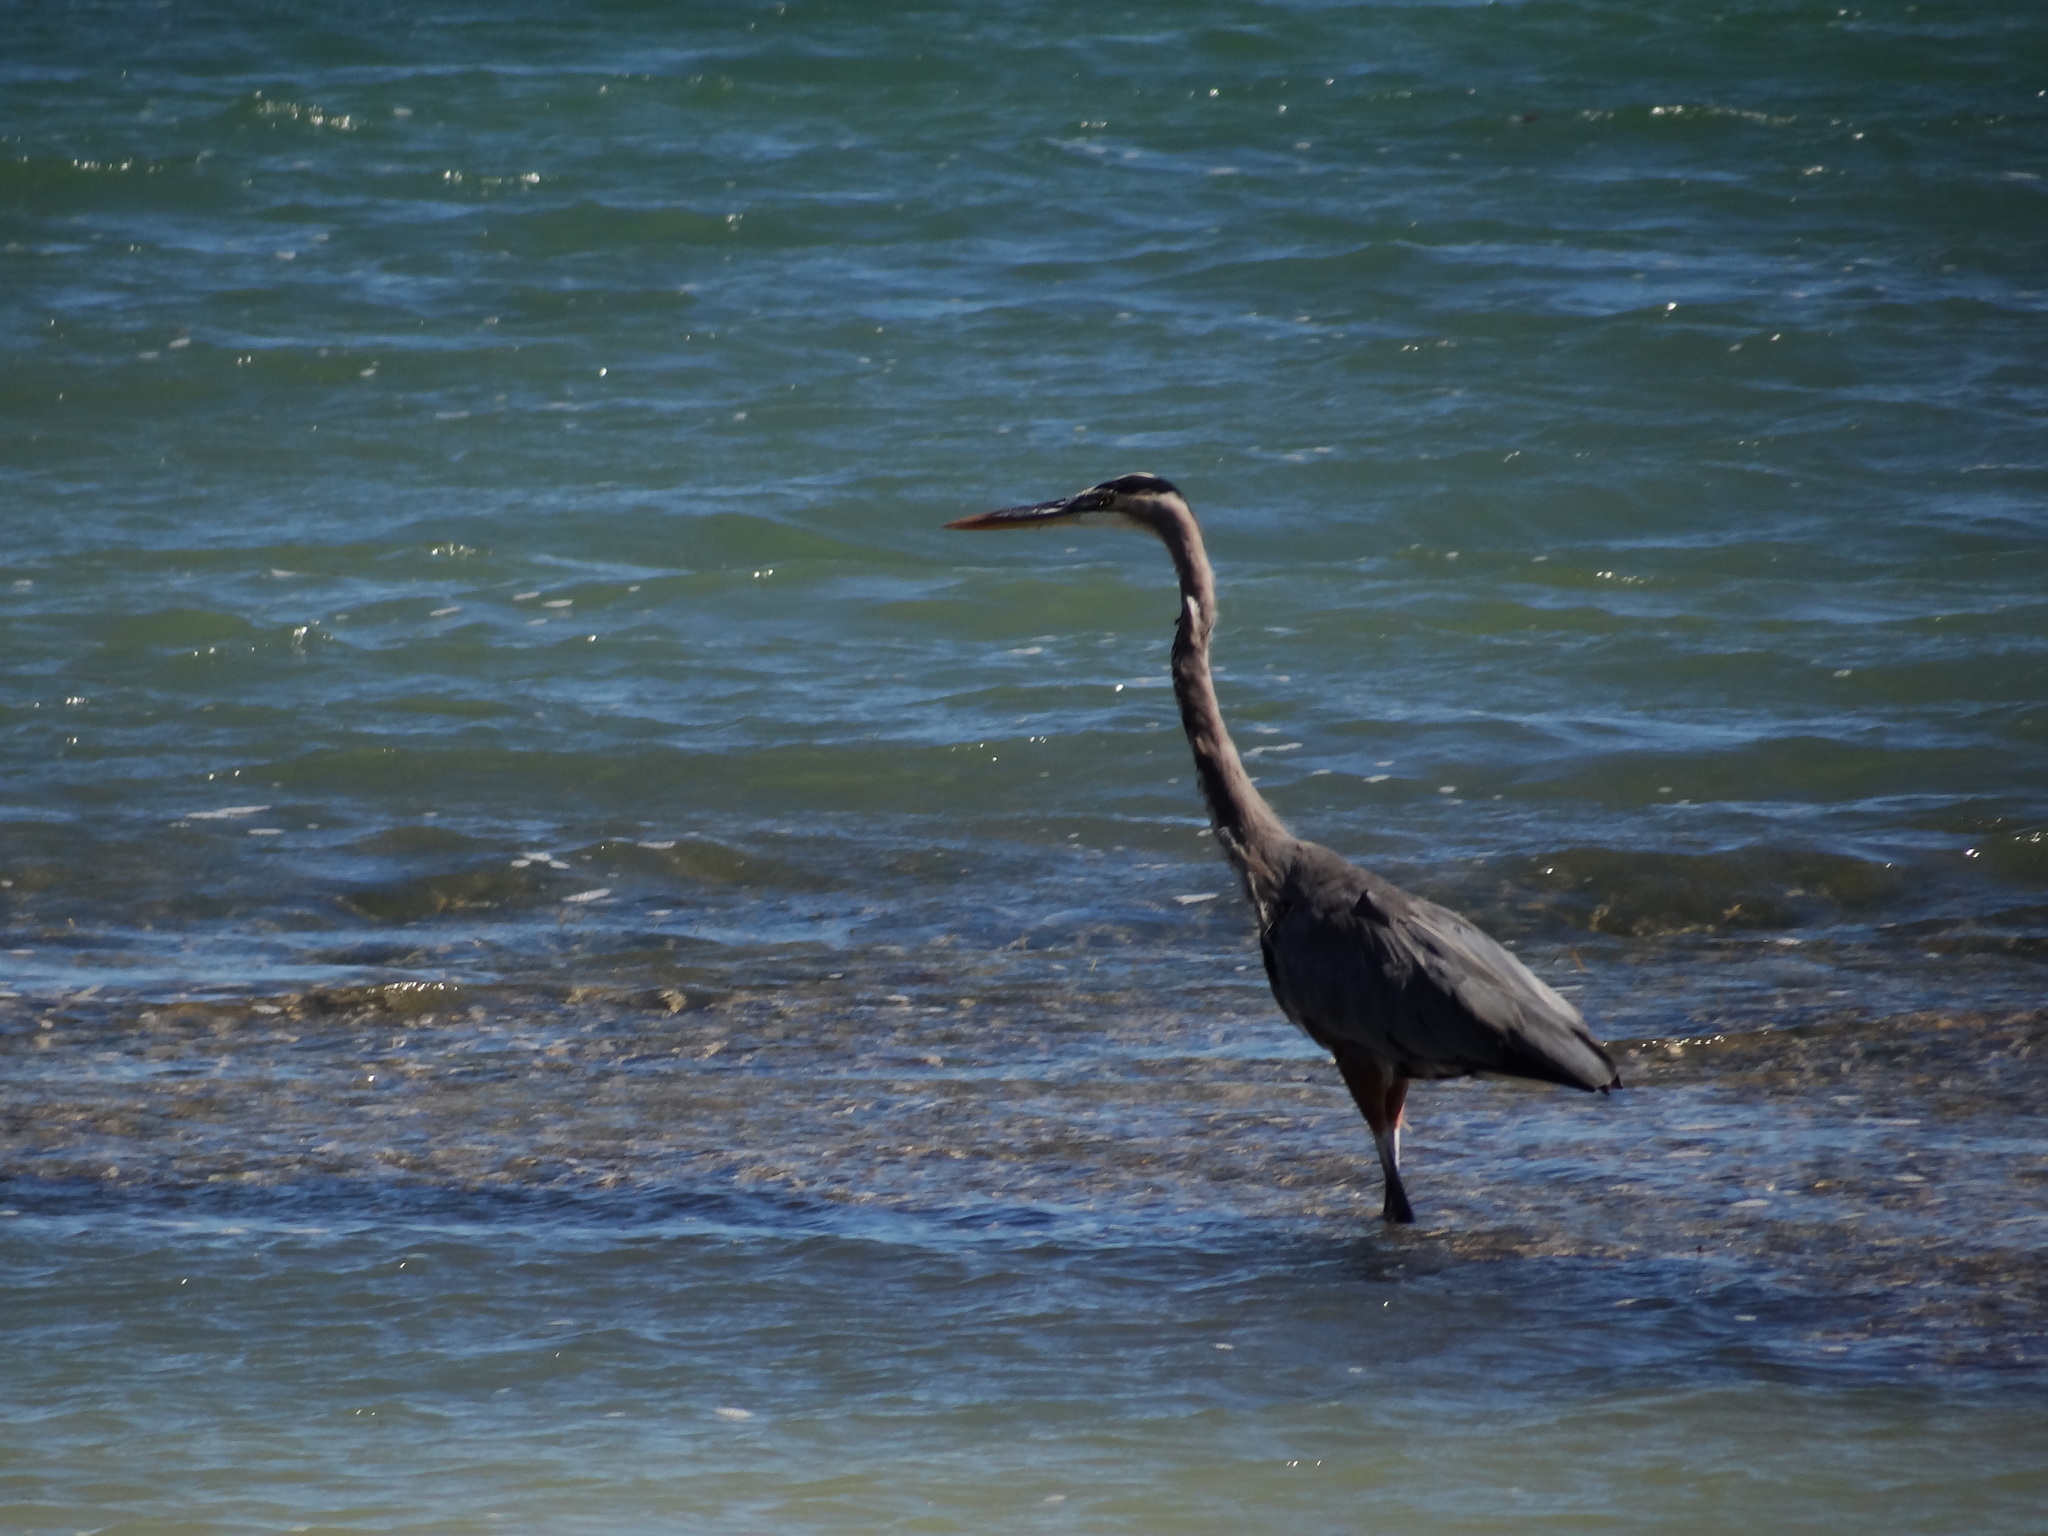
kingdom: Animalia
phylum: Chordata
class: Aves
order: Pelecaniformes
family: Ardeidae
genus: Ardea
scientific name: Ardea herodias
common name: Great blue heron
